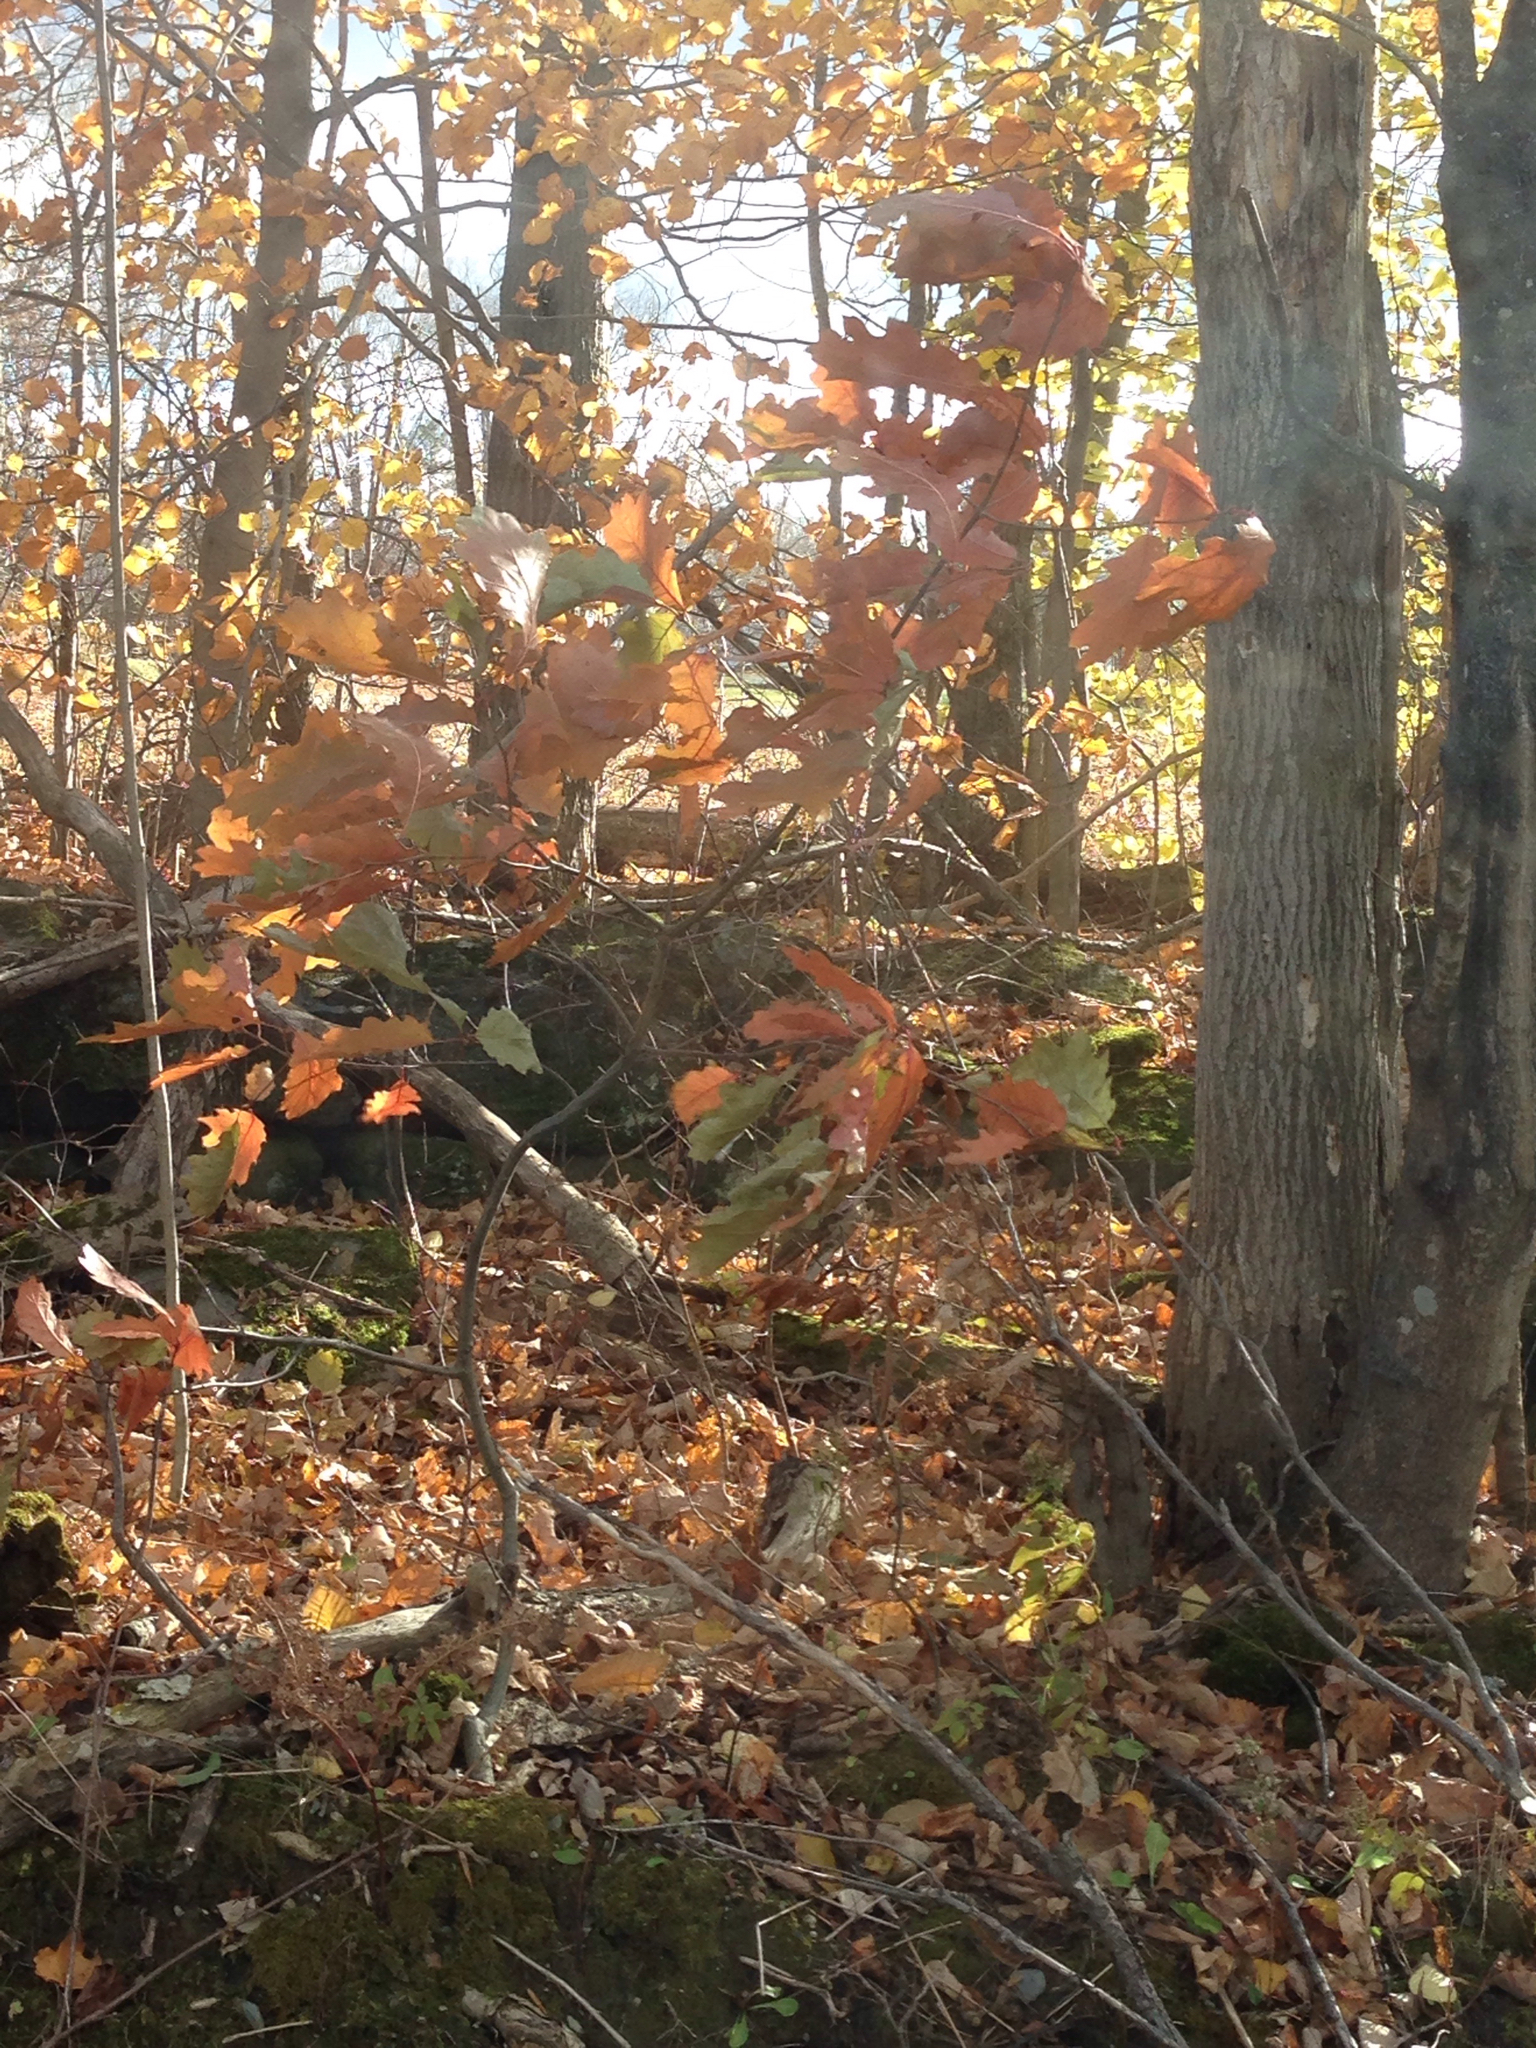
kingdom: Plantae
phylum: Tracheophyta
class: Magnoliopsida
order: Fagales
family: Fagaceae
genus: Quercus
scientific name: Quercus rubra
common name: Red oak
